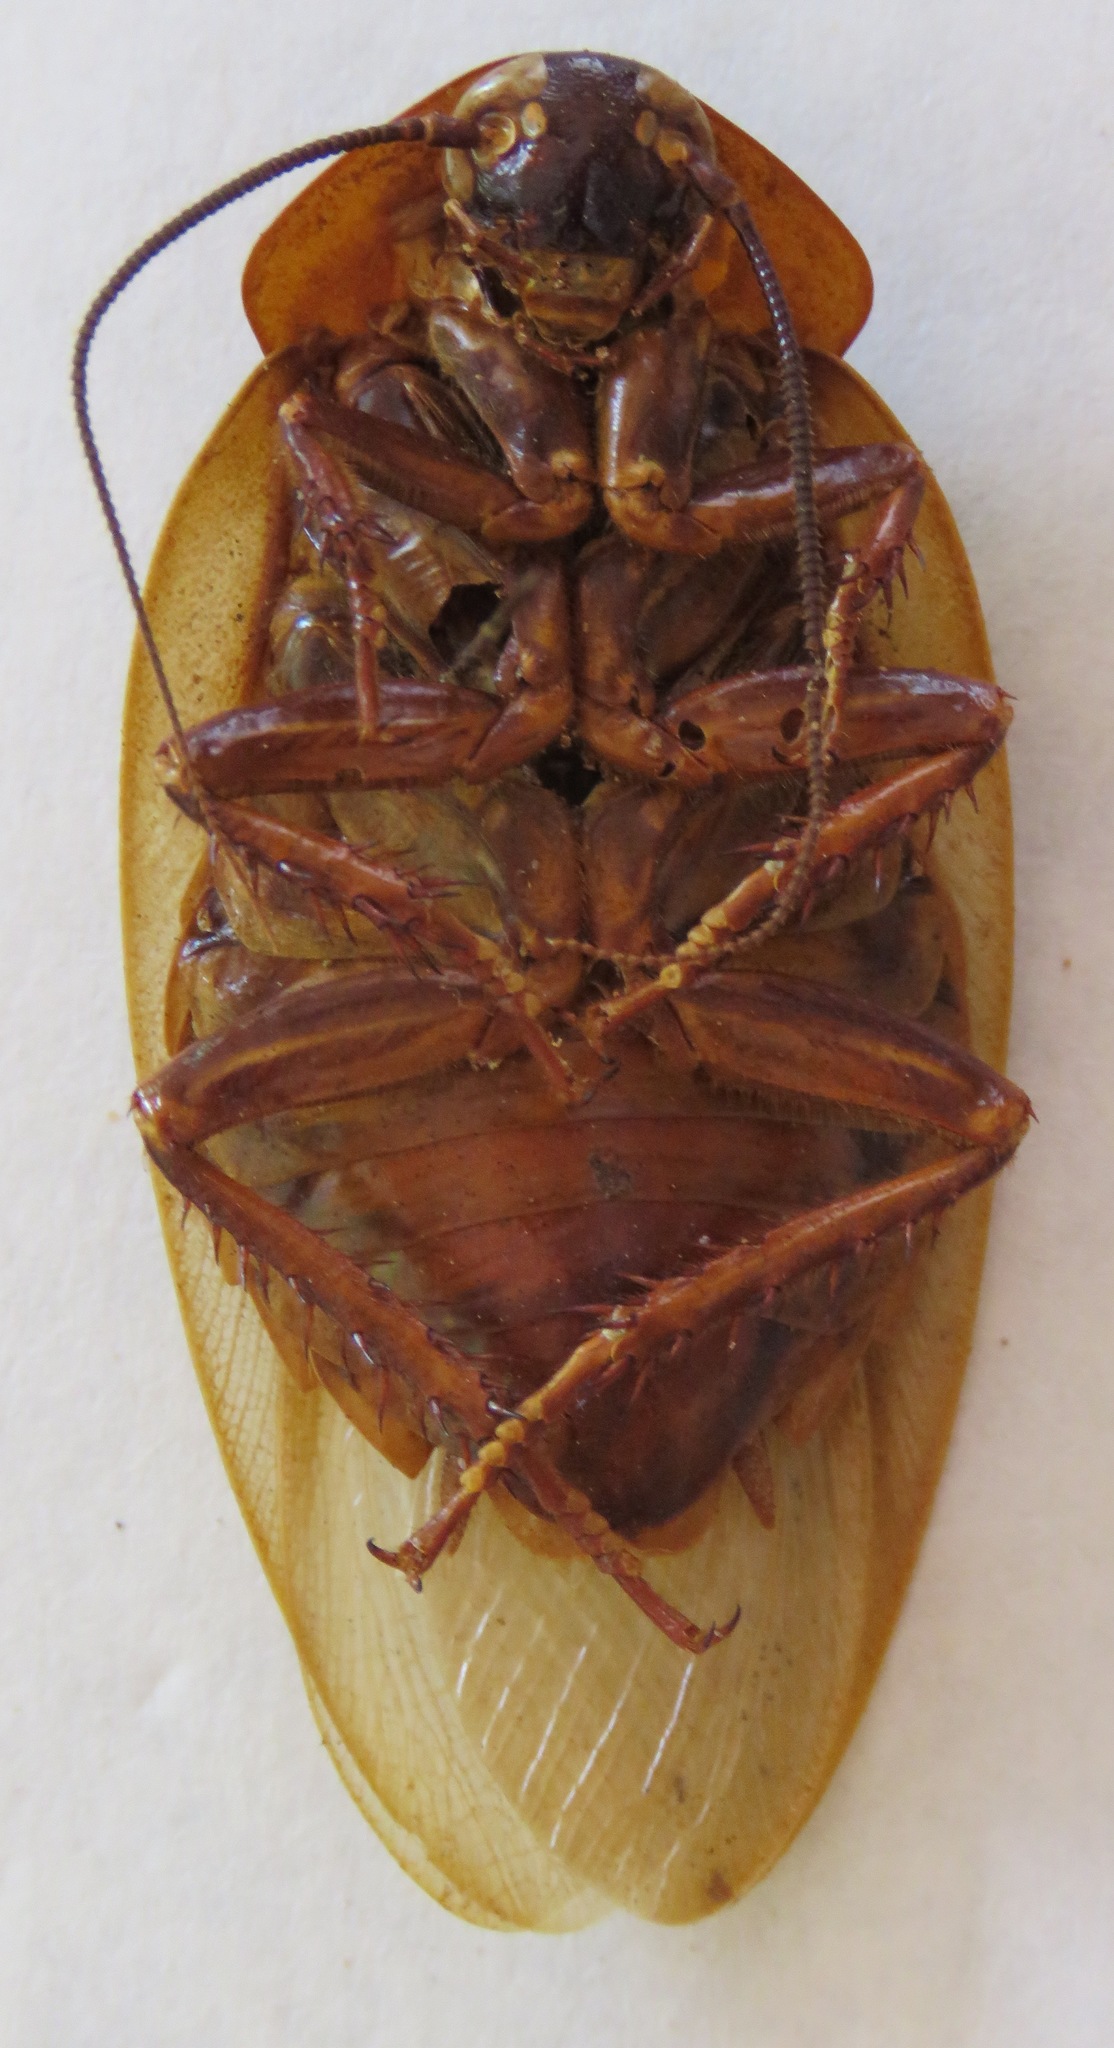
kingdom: Animalia
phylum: Arthropoda
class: Insecta
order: Blattodea
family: Blaberidae
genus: Eublaberus
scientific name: Eublaberus posticus
